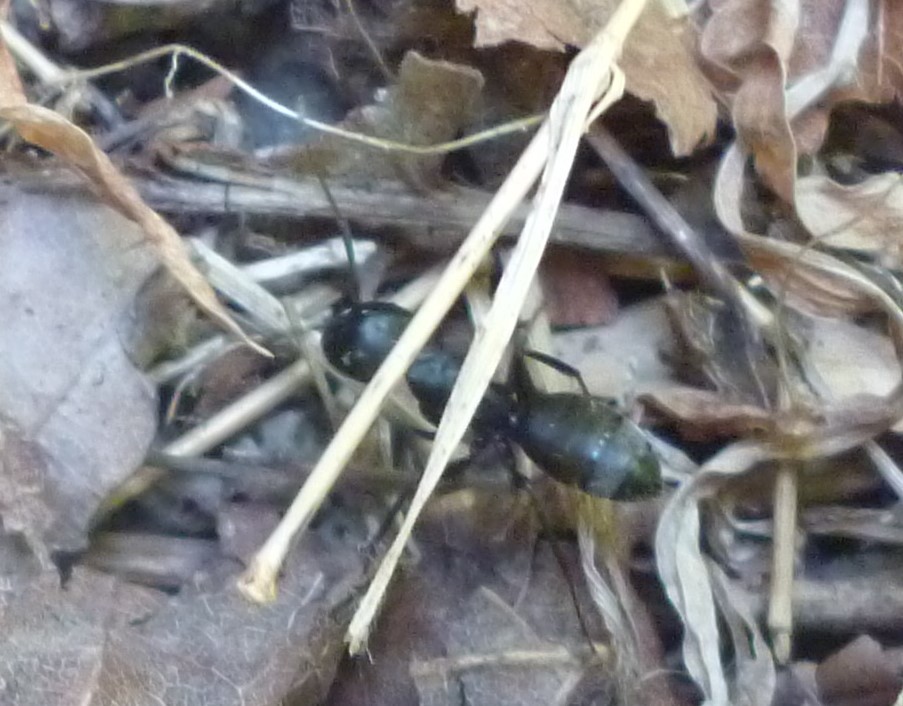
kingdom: Animalia
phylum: Arthropoda
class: Insecta
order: Hymenoptera
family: Formicidae
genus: Camponotus
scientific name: Camponotus pennsylvanicus
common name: Black carpenter ant
